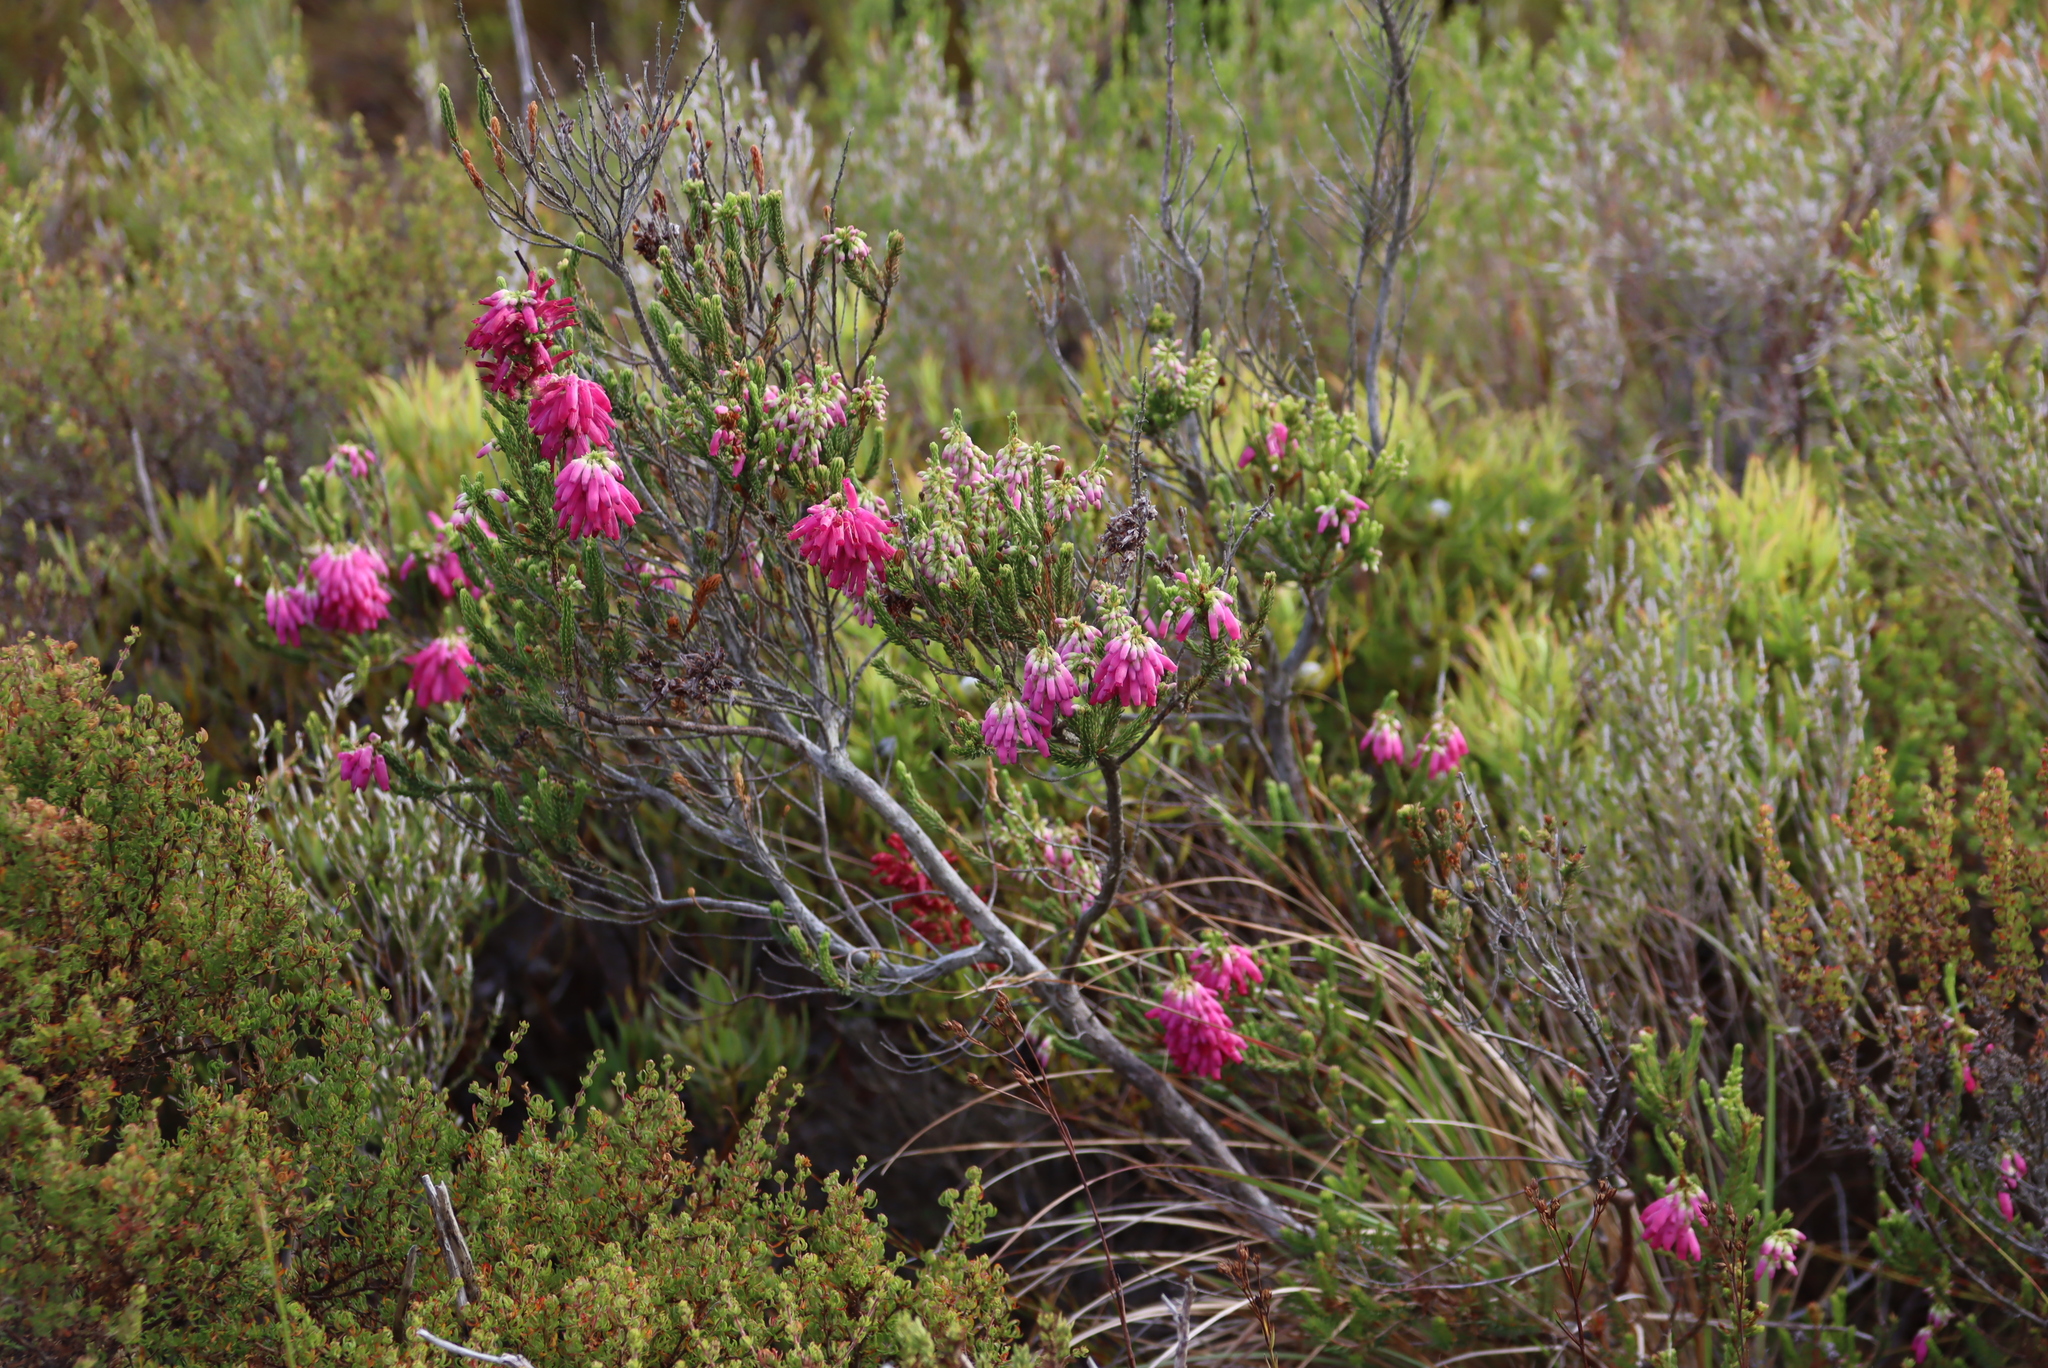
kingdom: Plantae
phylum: Tracheophyta
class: Magnoliopsida
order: Ericales
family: Ericaceae
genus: Erica
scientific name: Erica mammosa
